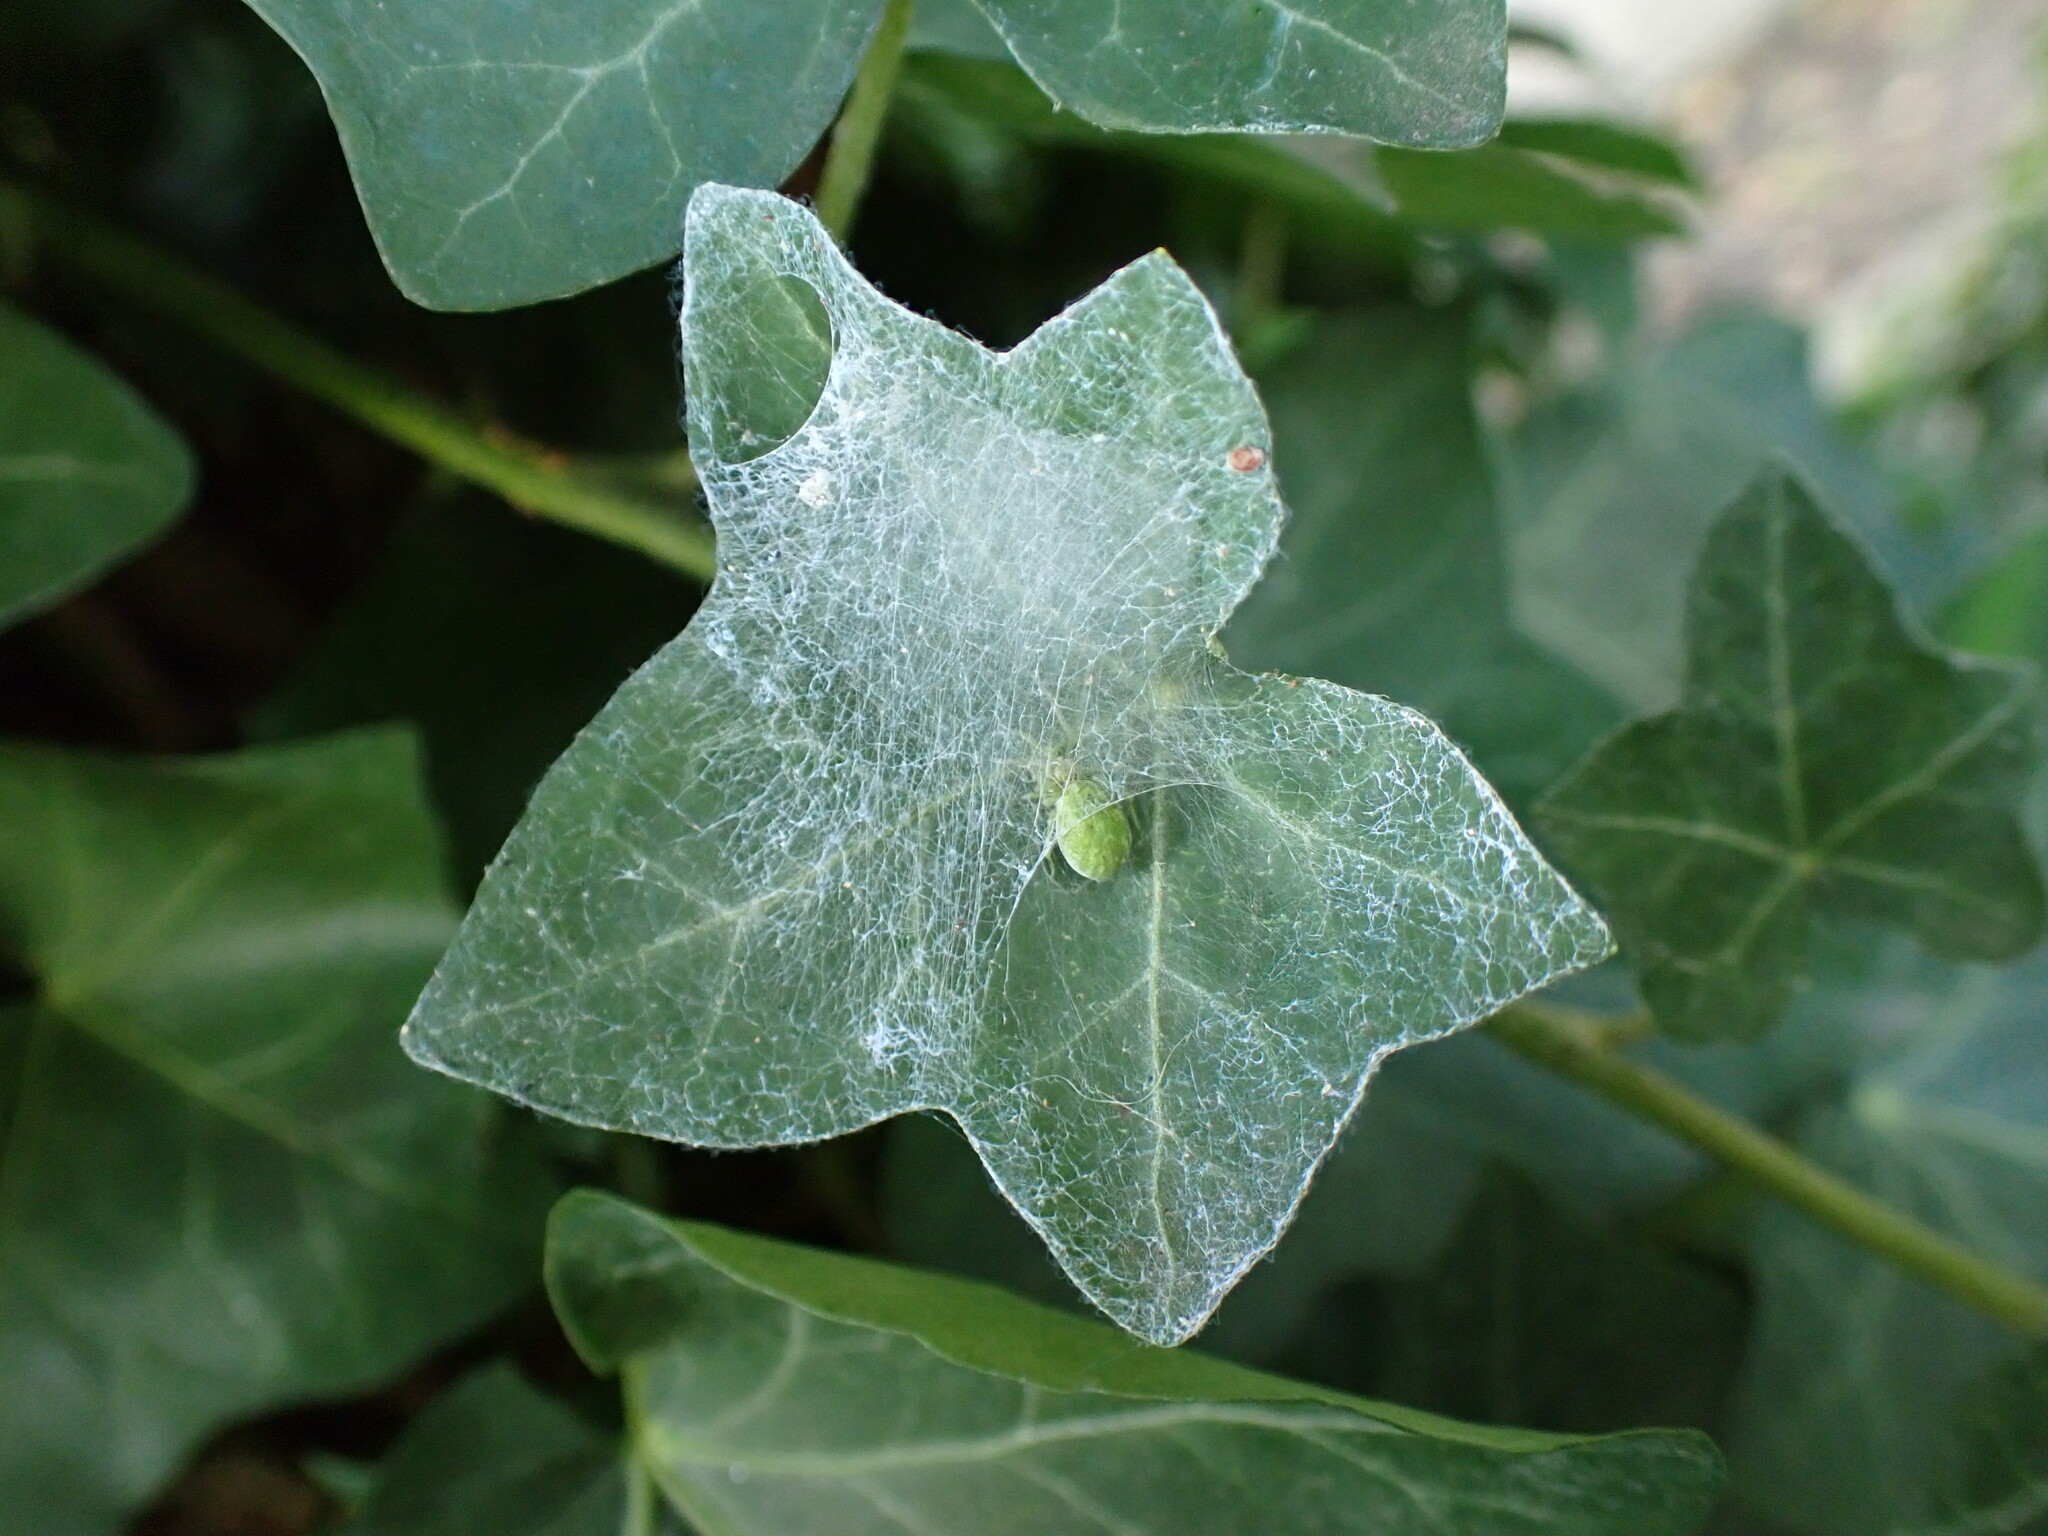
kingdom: Animalia
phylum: Arthropoda
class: Arachnida
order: Araneae
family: Dictynidae
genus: Nigma
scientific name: Nigma walckenaeri
